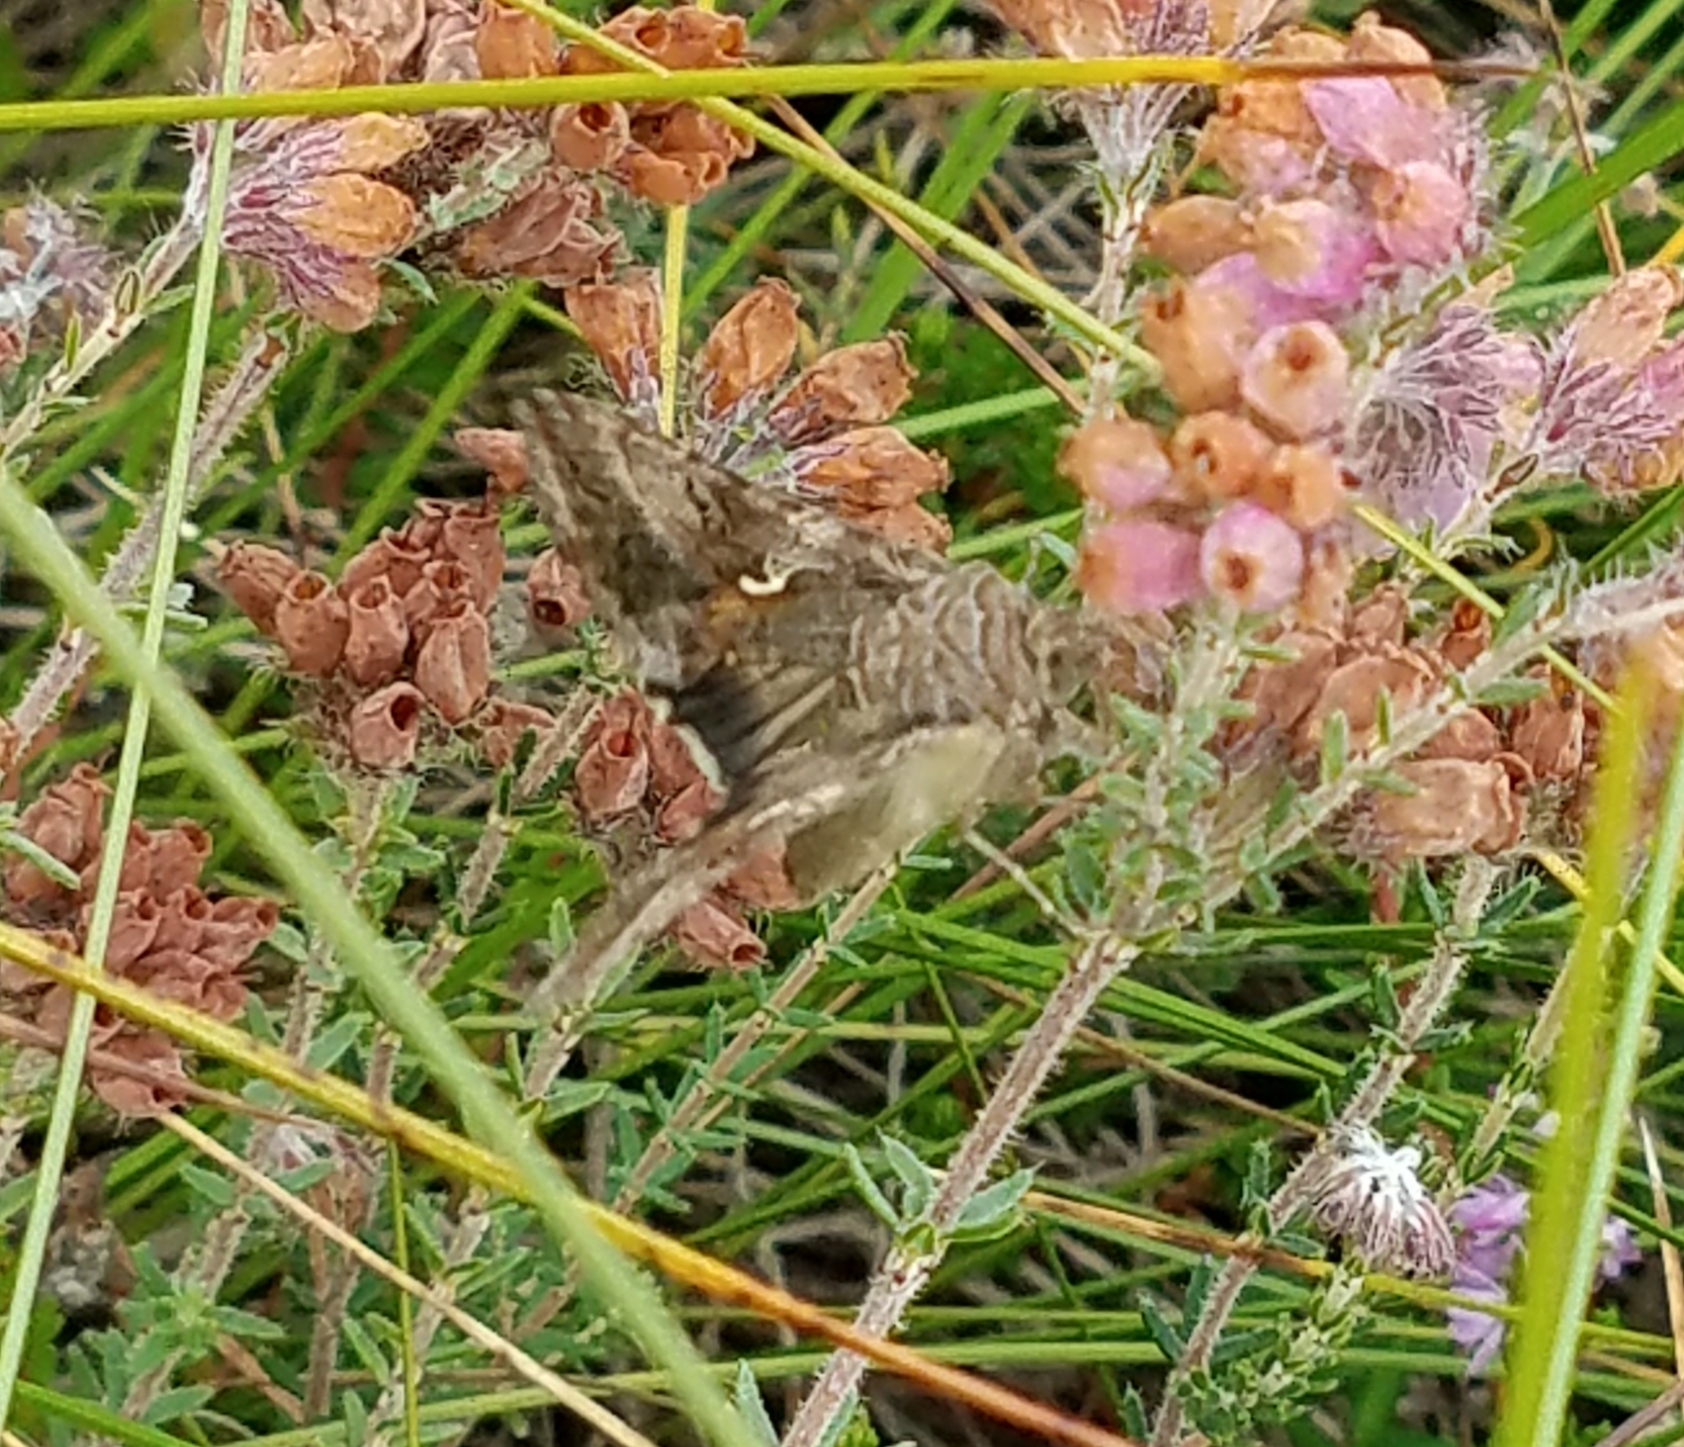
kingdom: Animalia
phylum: Arthropoda
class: Insecta
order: Lepidoptera
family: Noctuidae
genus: Autographa
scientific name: Autographa gamma
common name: Silver y
